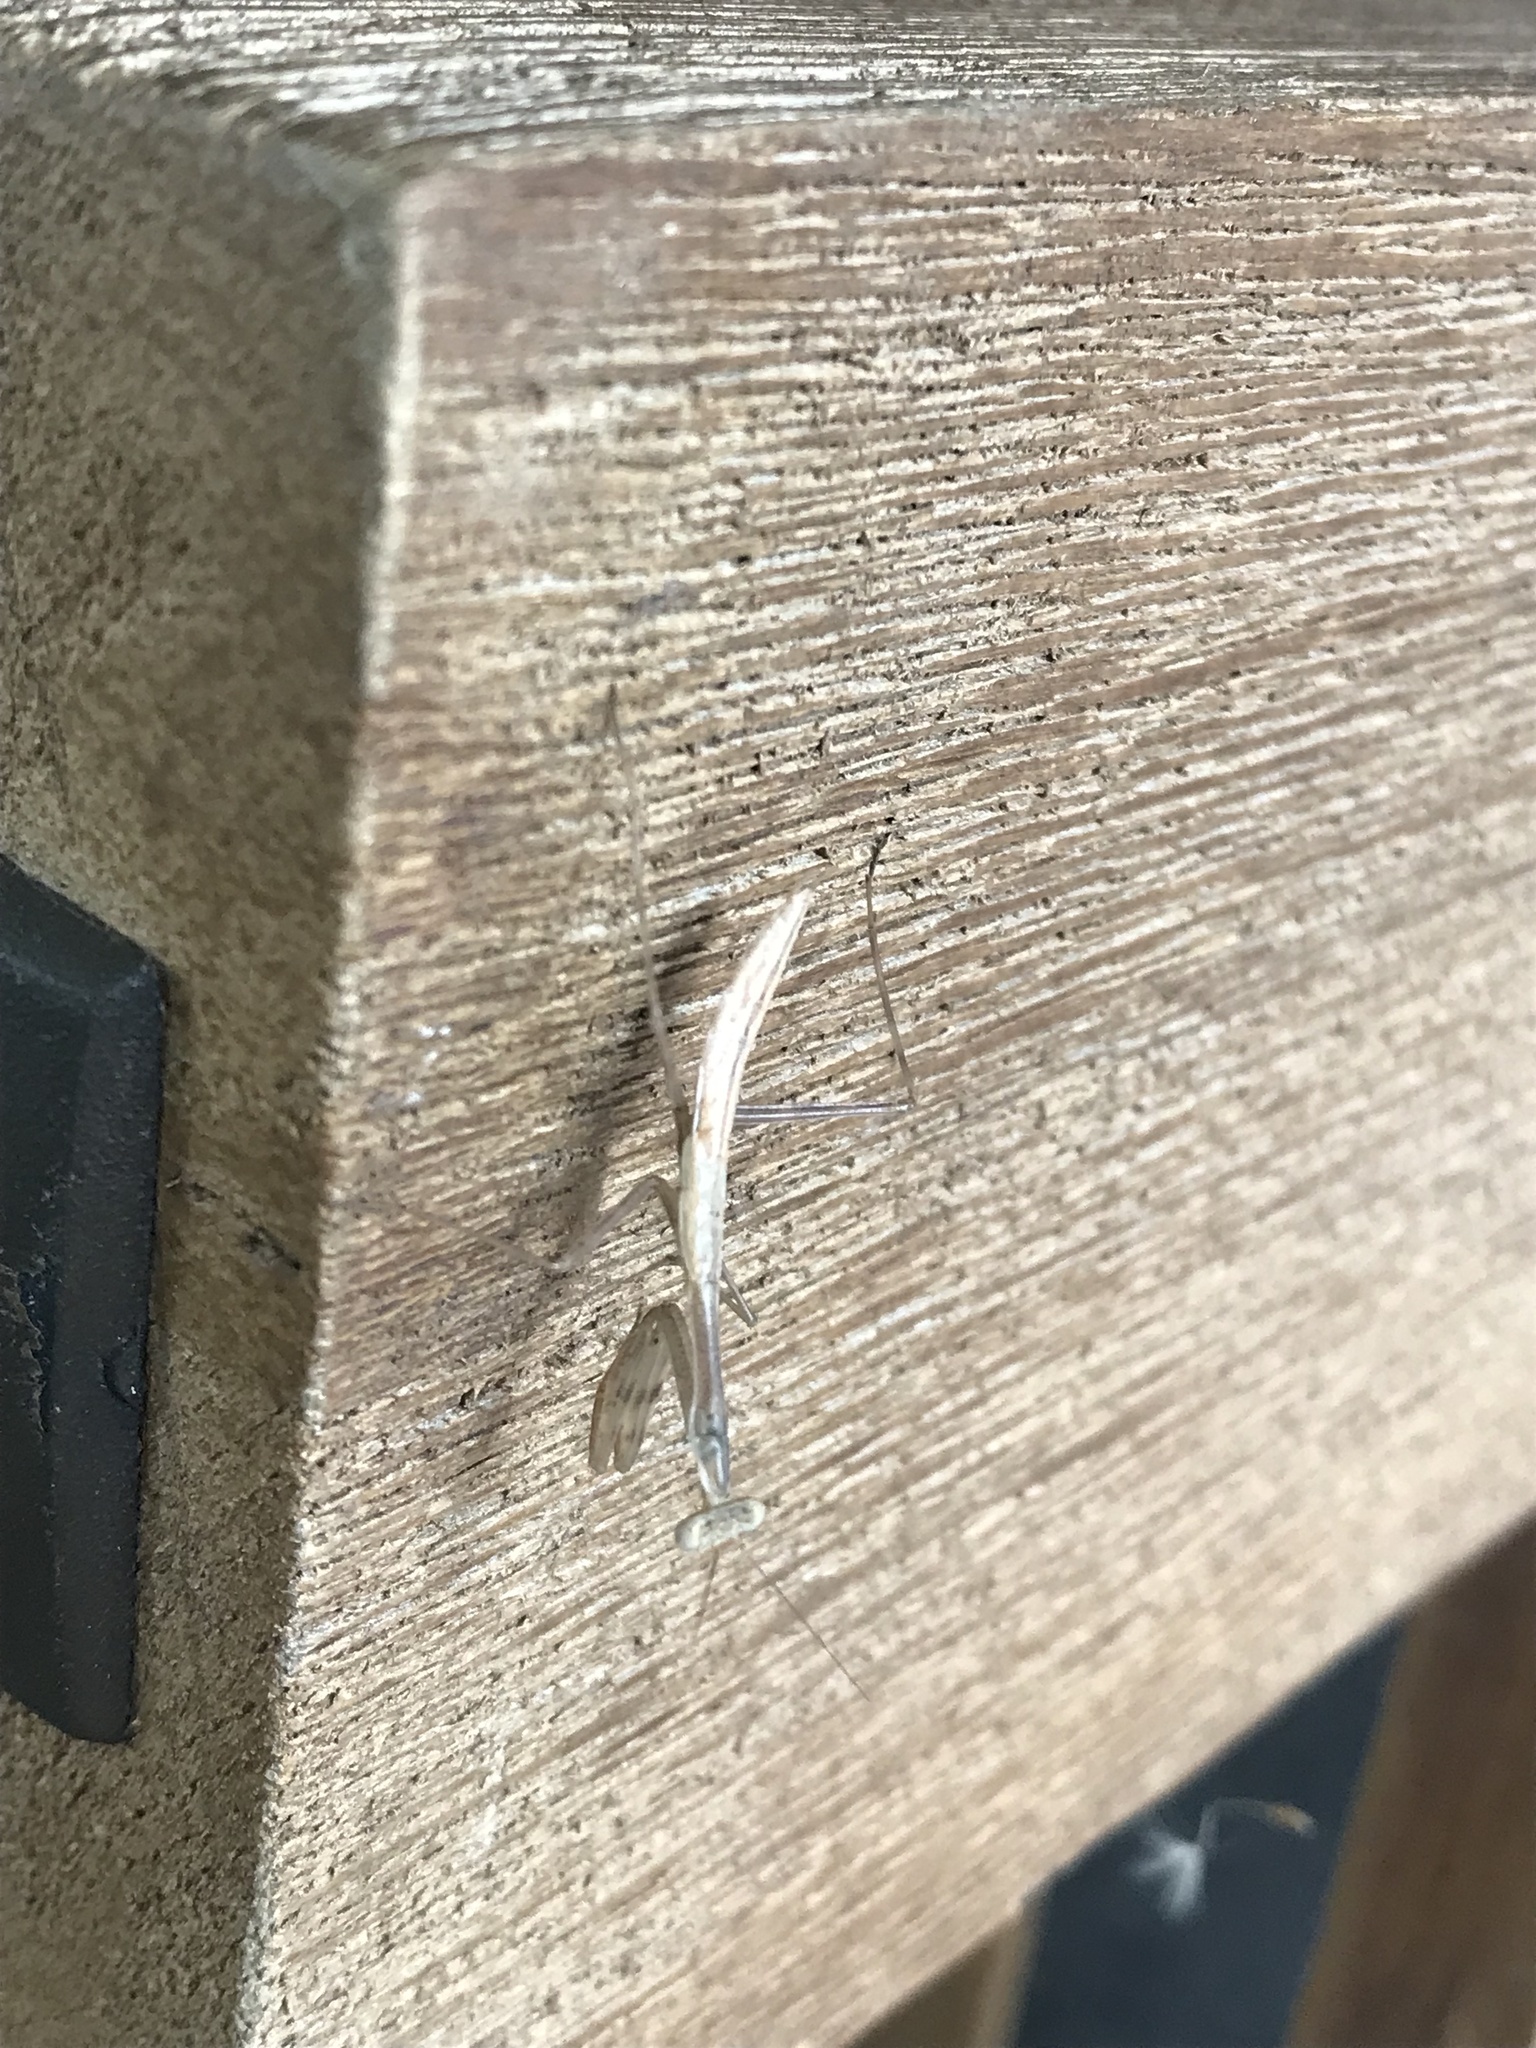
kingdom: Animalia
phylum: Arthropoda
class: Insecta
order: Mantodea
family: Miomantidae
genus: Miomantis
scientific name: Miomantis caffra
